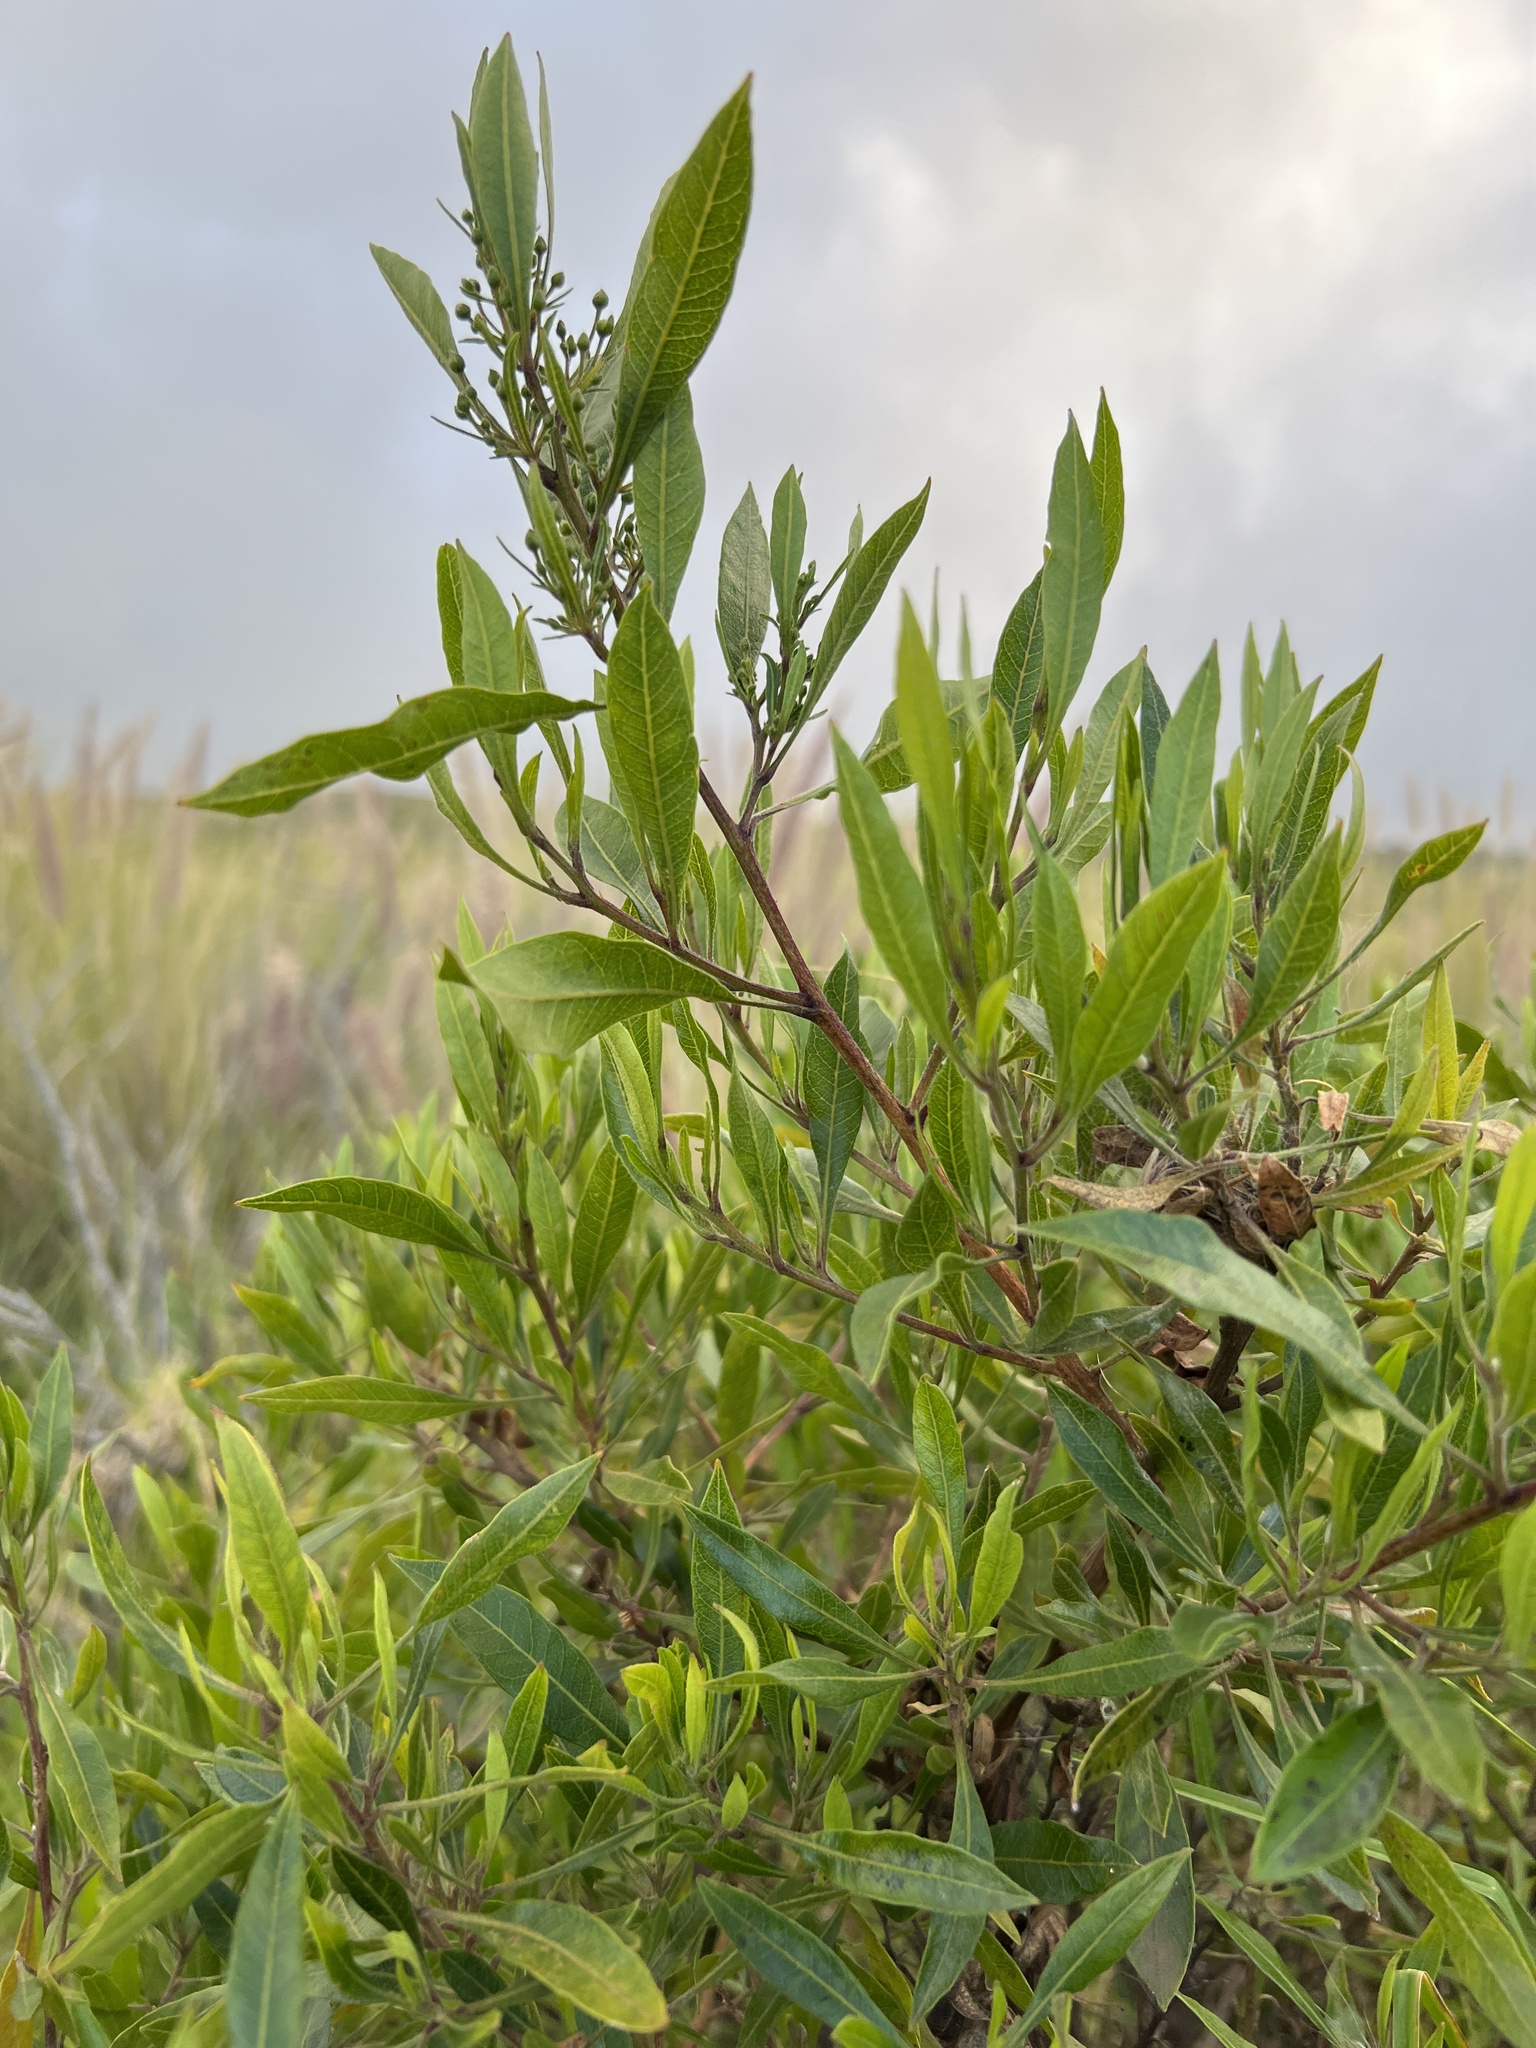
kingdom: Plantae
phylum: Tracheophyta
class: Magnoliopsida
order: Sapindales
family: Sapindaceae
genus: Dodonaea
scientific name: Dodonaea viscosa
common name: Hopbush
